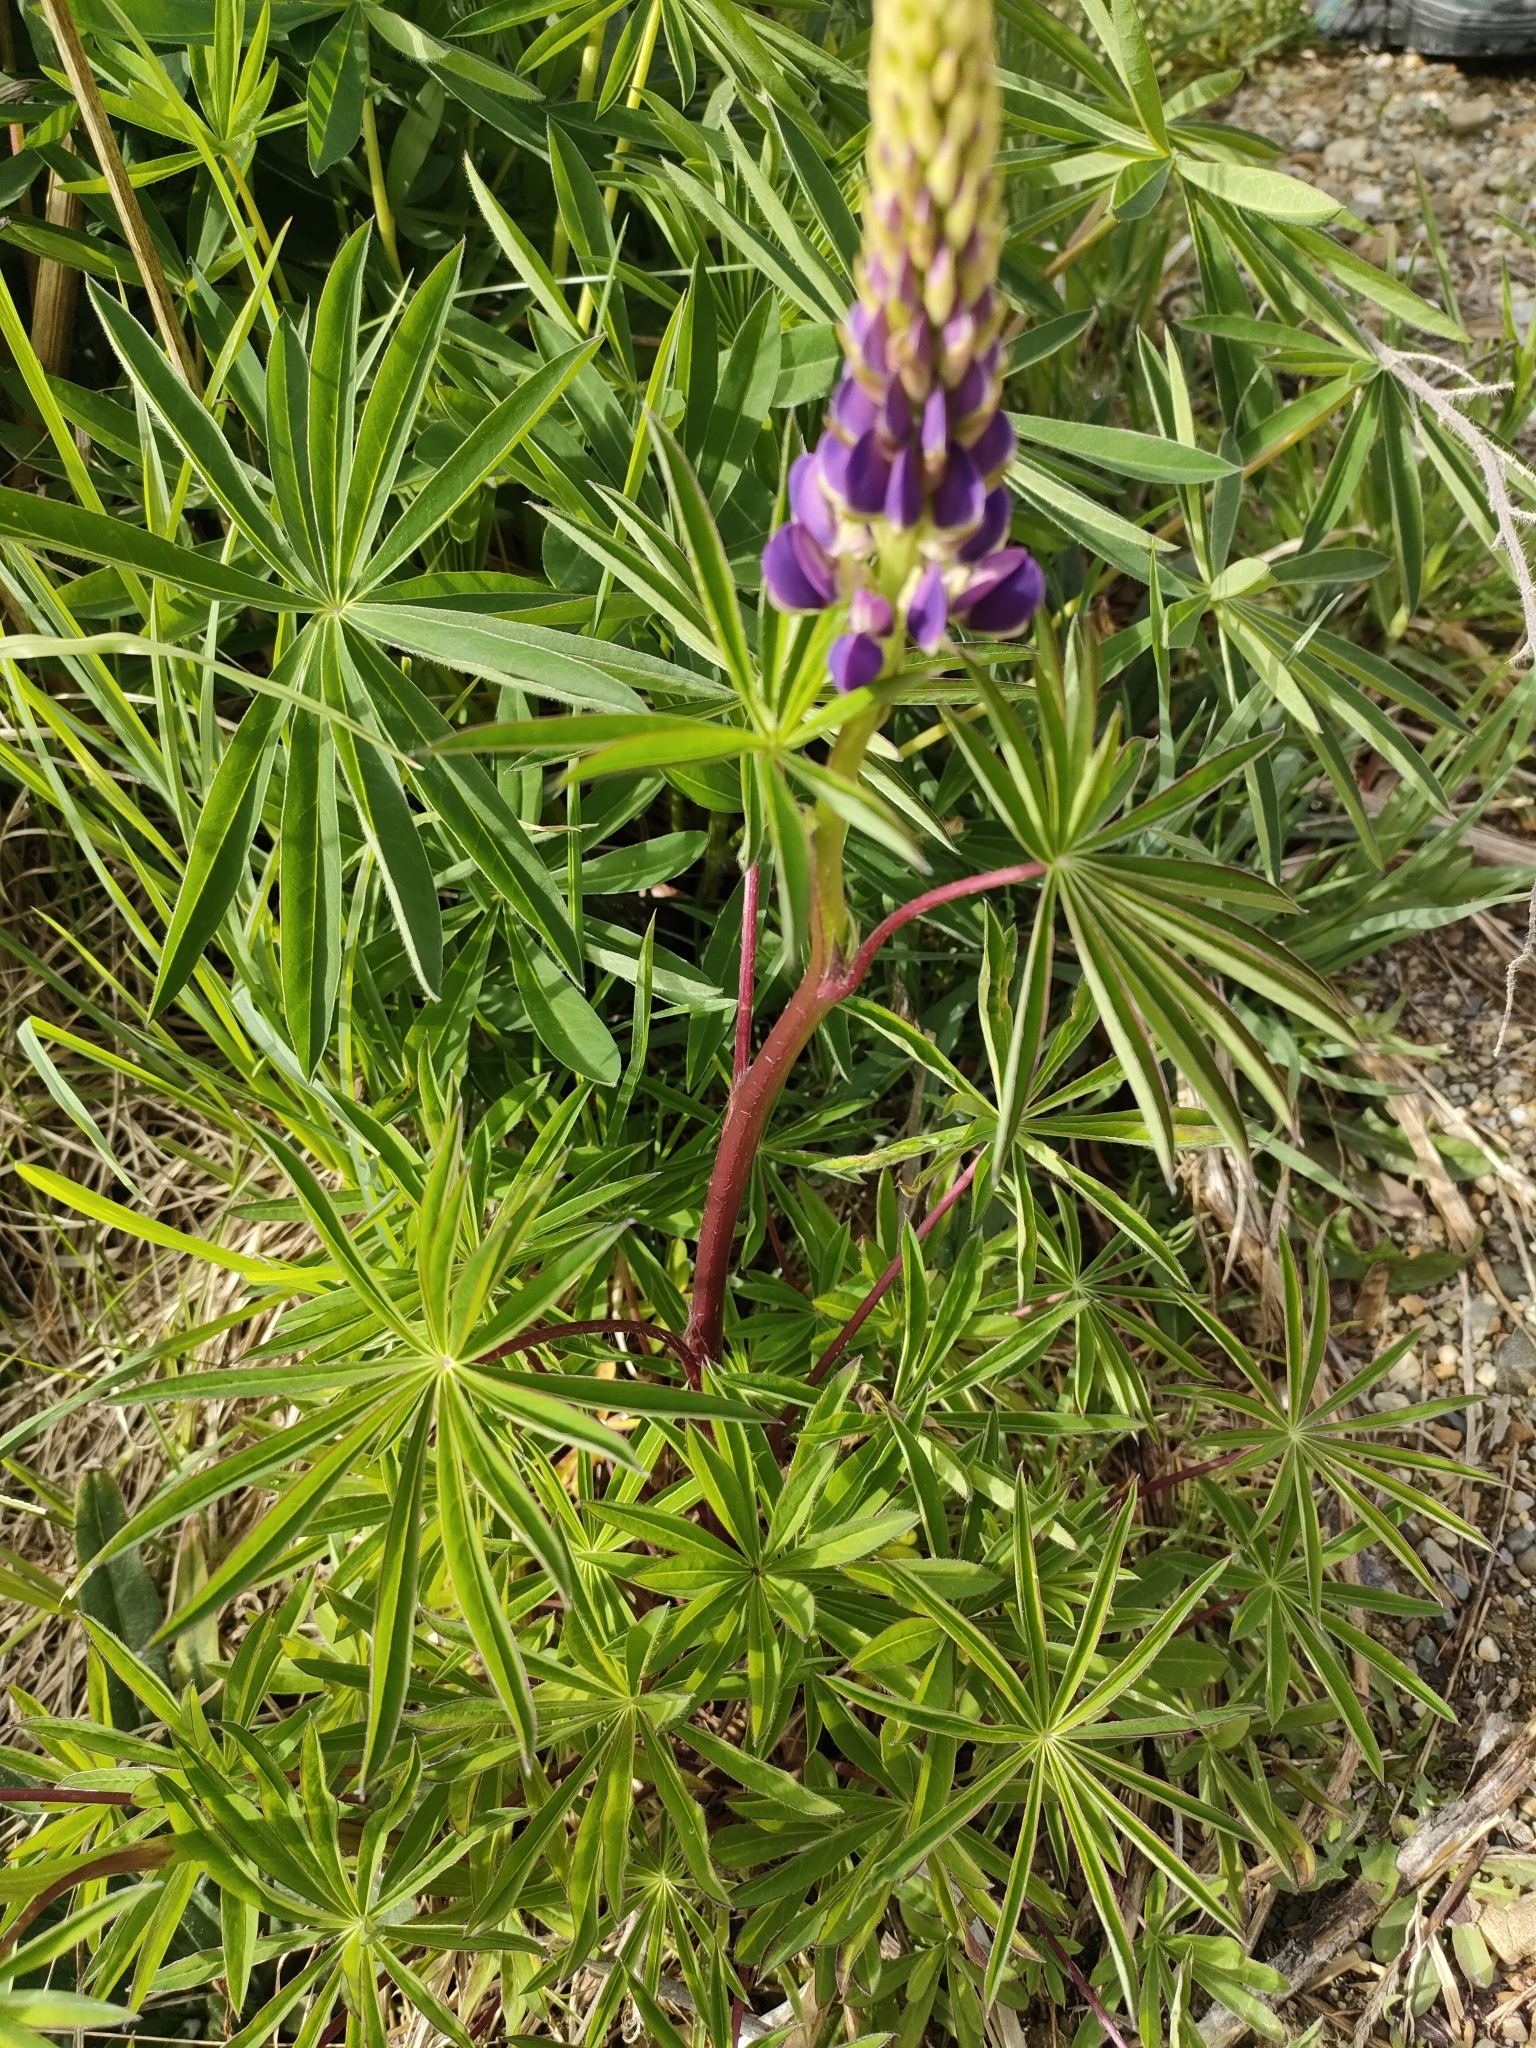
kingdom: Plantae
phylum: Tracheophyta
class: Magnoliopsida
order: Fabales
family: Fabaceae
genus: Lupinus
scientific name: Lupinus polyphyllus
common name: Garden lupin
